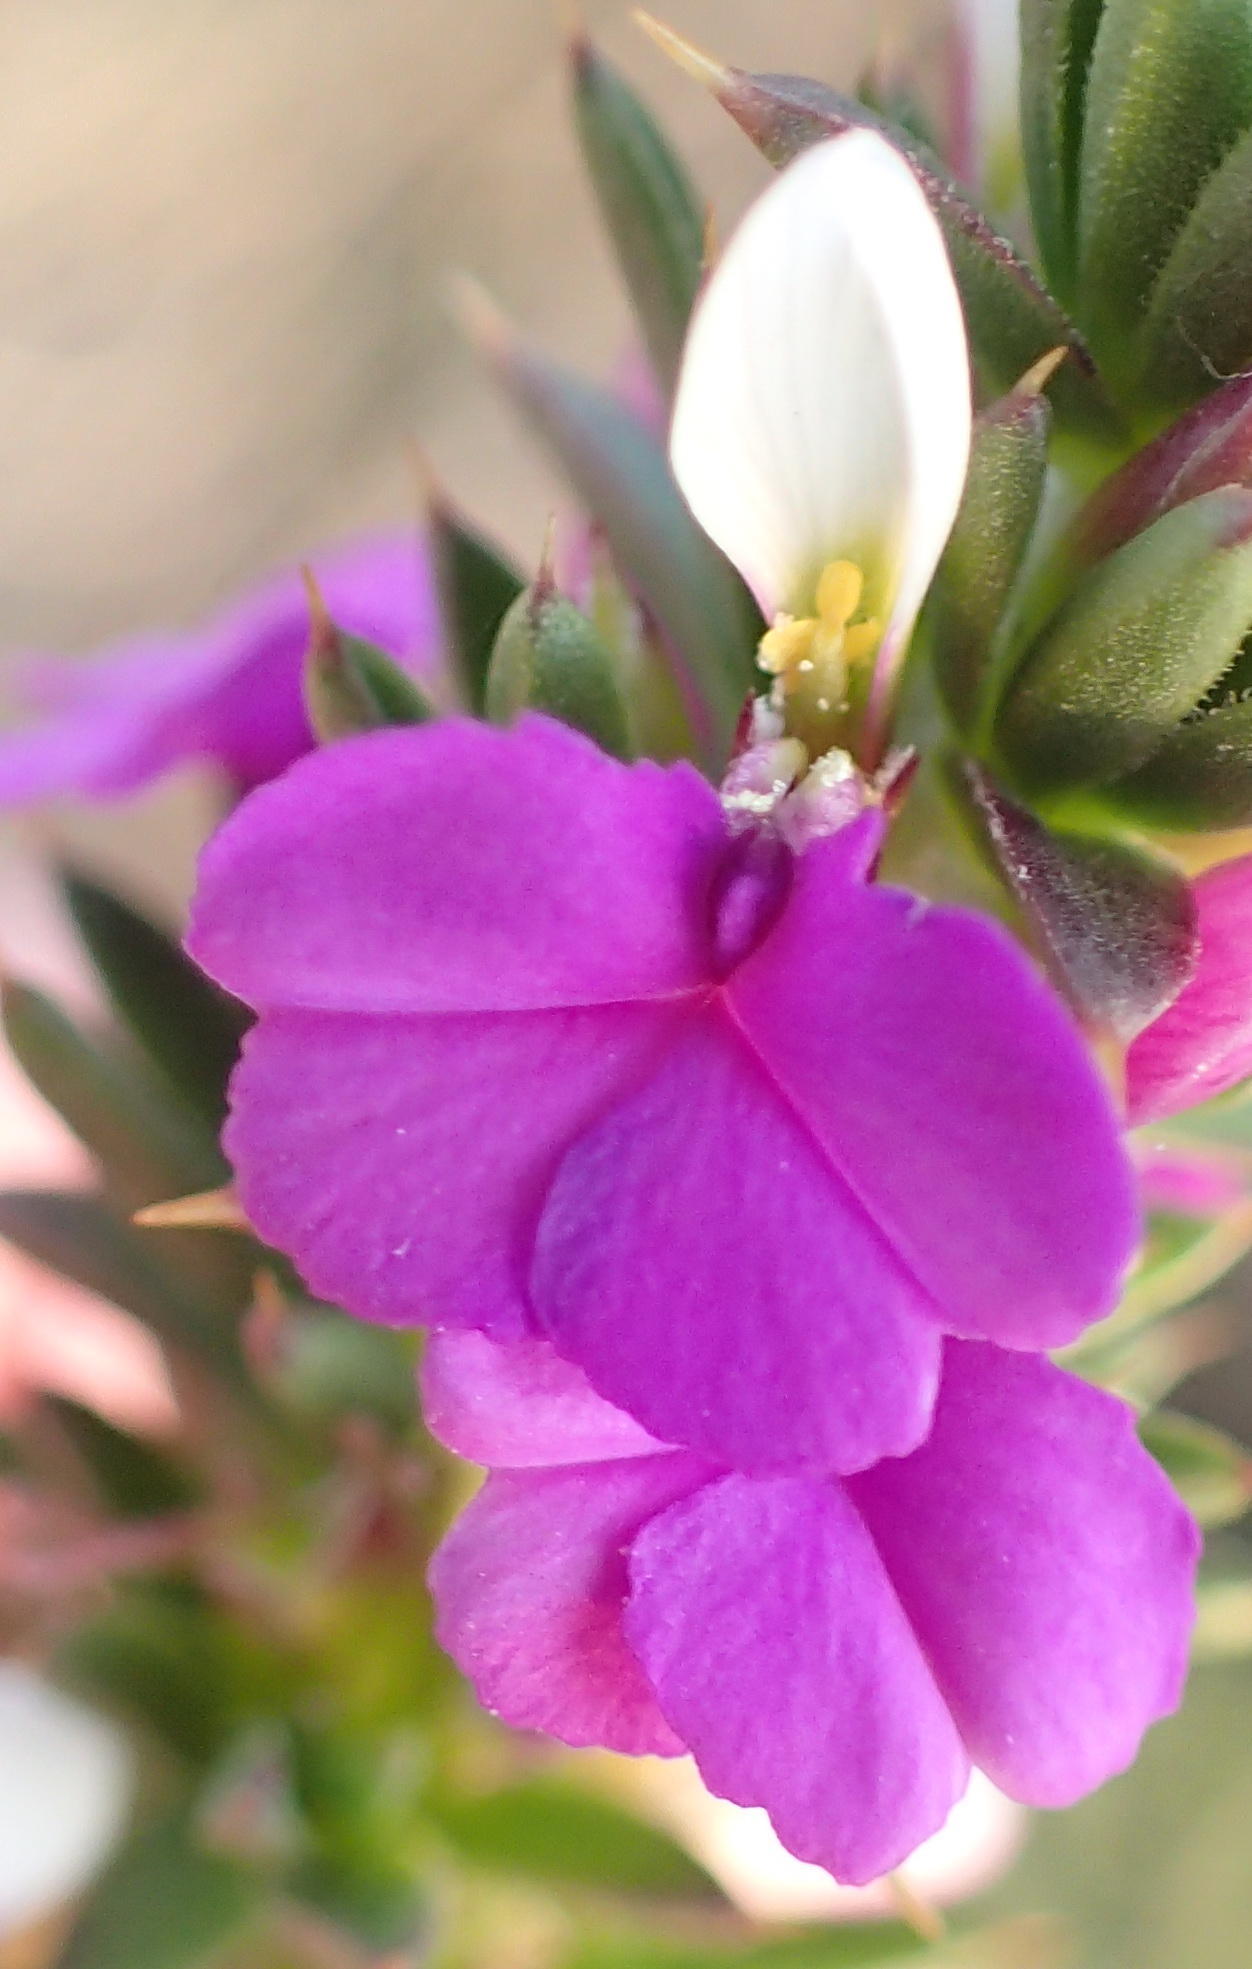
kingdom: Plantae
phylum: Tracheophyta
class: Magnoliopsida
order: Fabales
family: Polygalaceae
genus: Muraltia
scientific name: Muraltia heisteria
